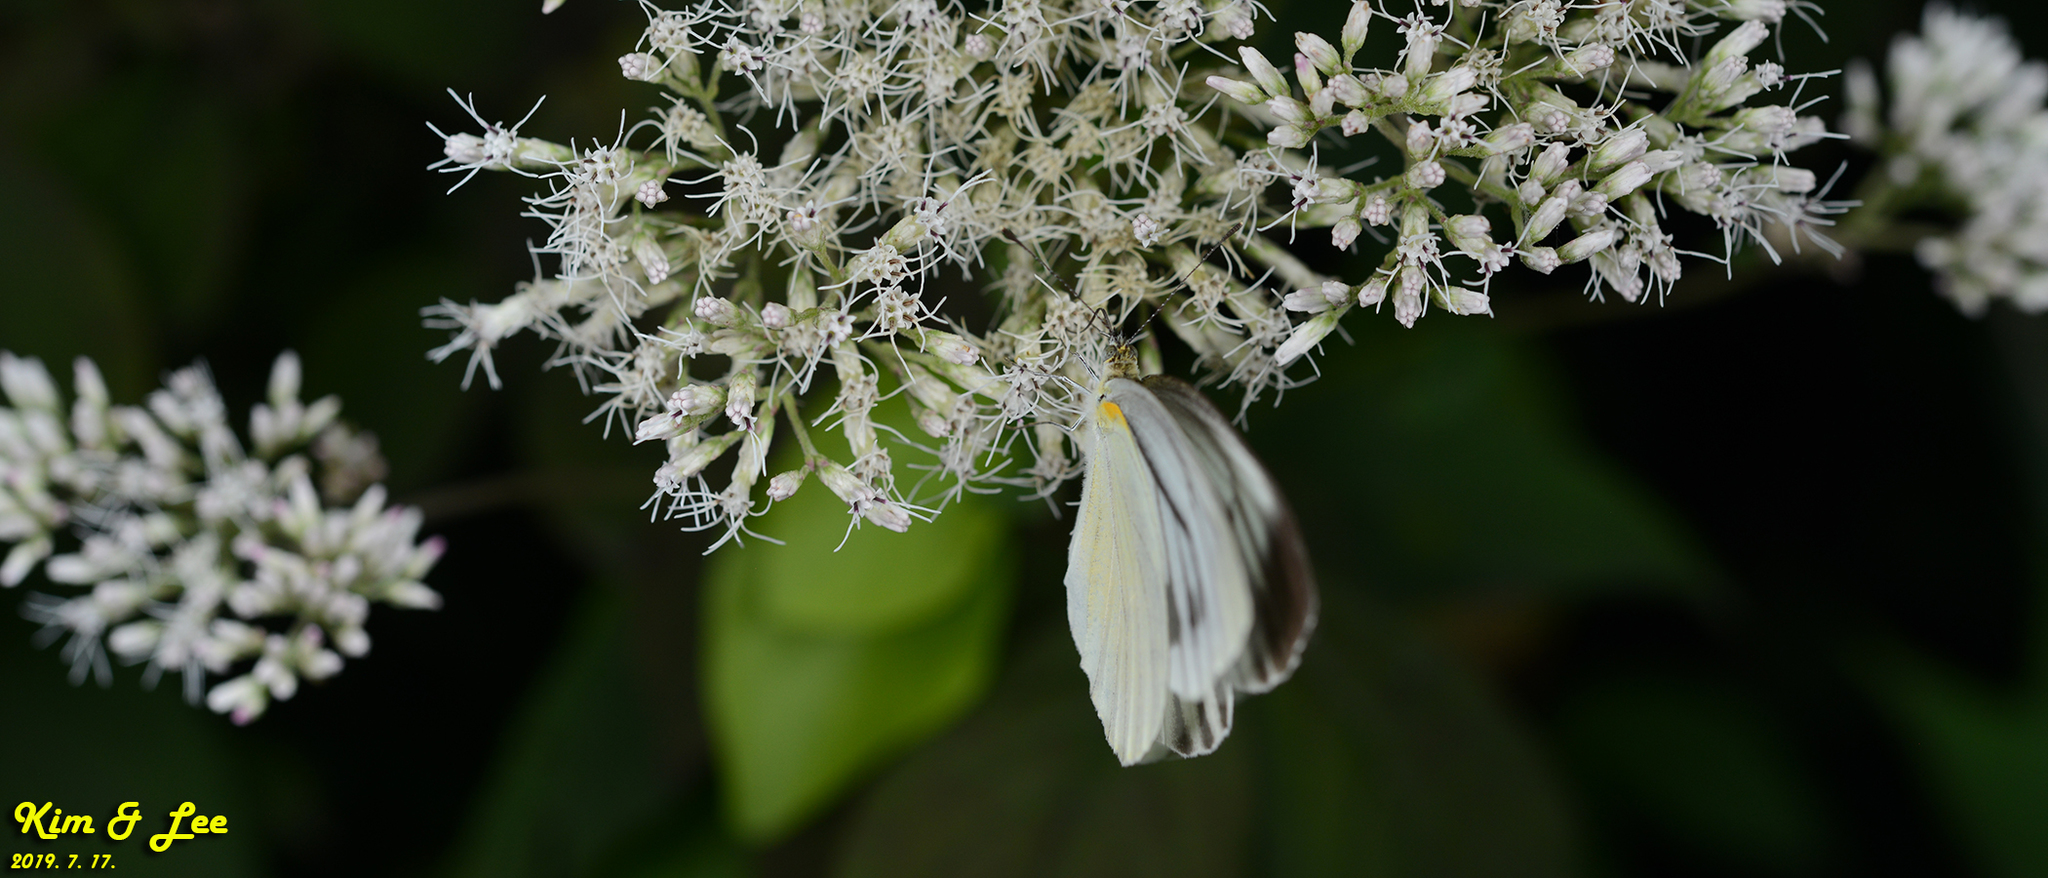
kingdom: Animalia
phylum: Arthropoda
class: Insecta
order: Lepidoptera
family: Pieridae
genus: Pieris
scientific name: Pieris melete
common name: Asian green-veined white
